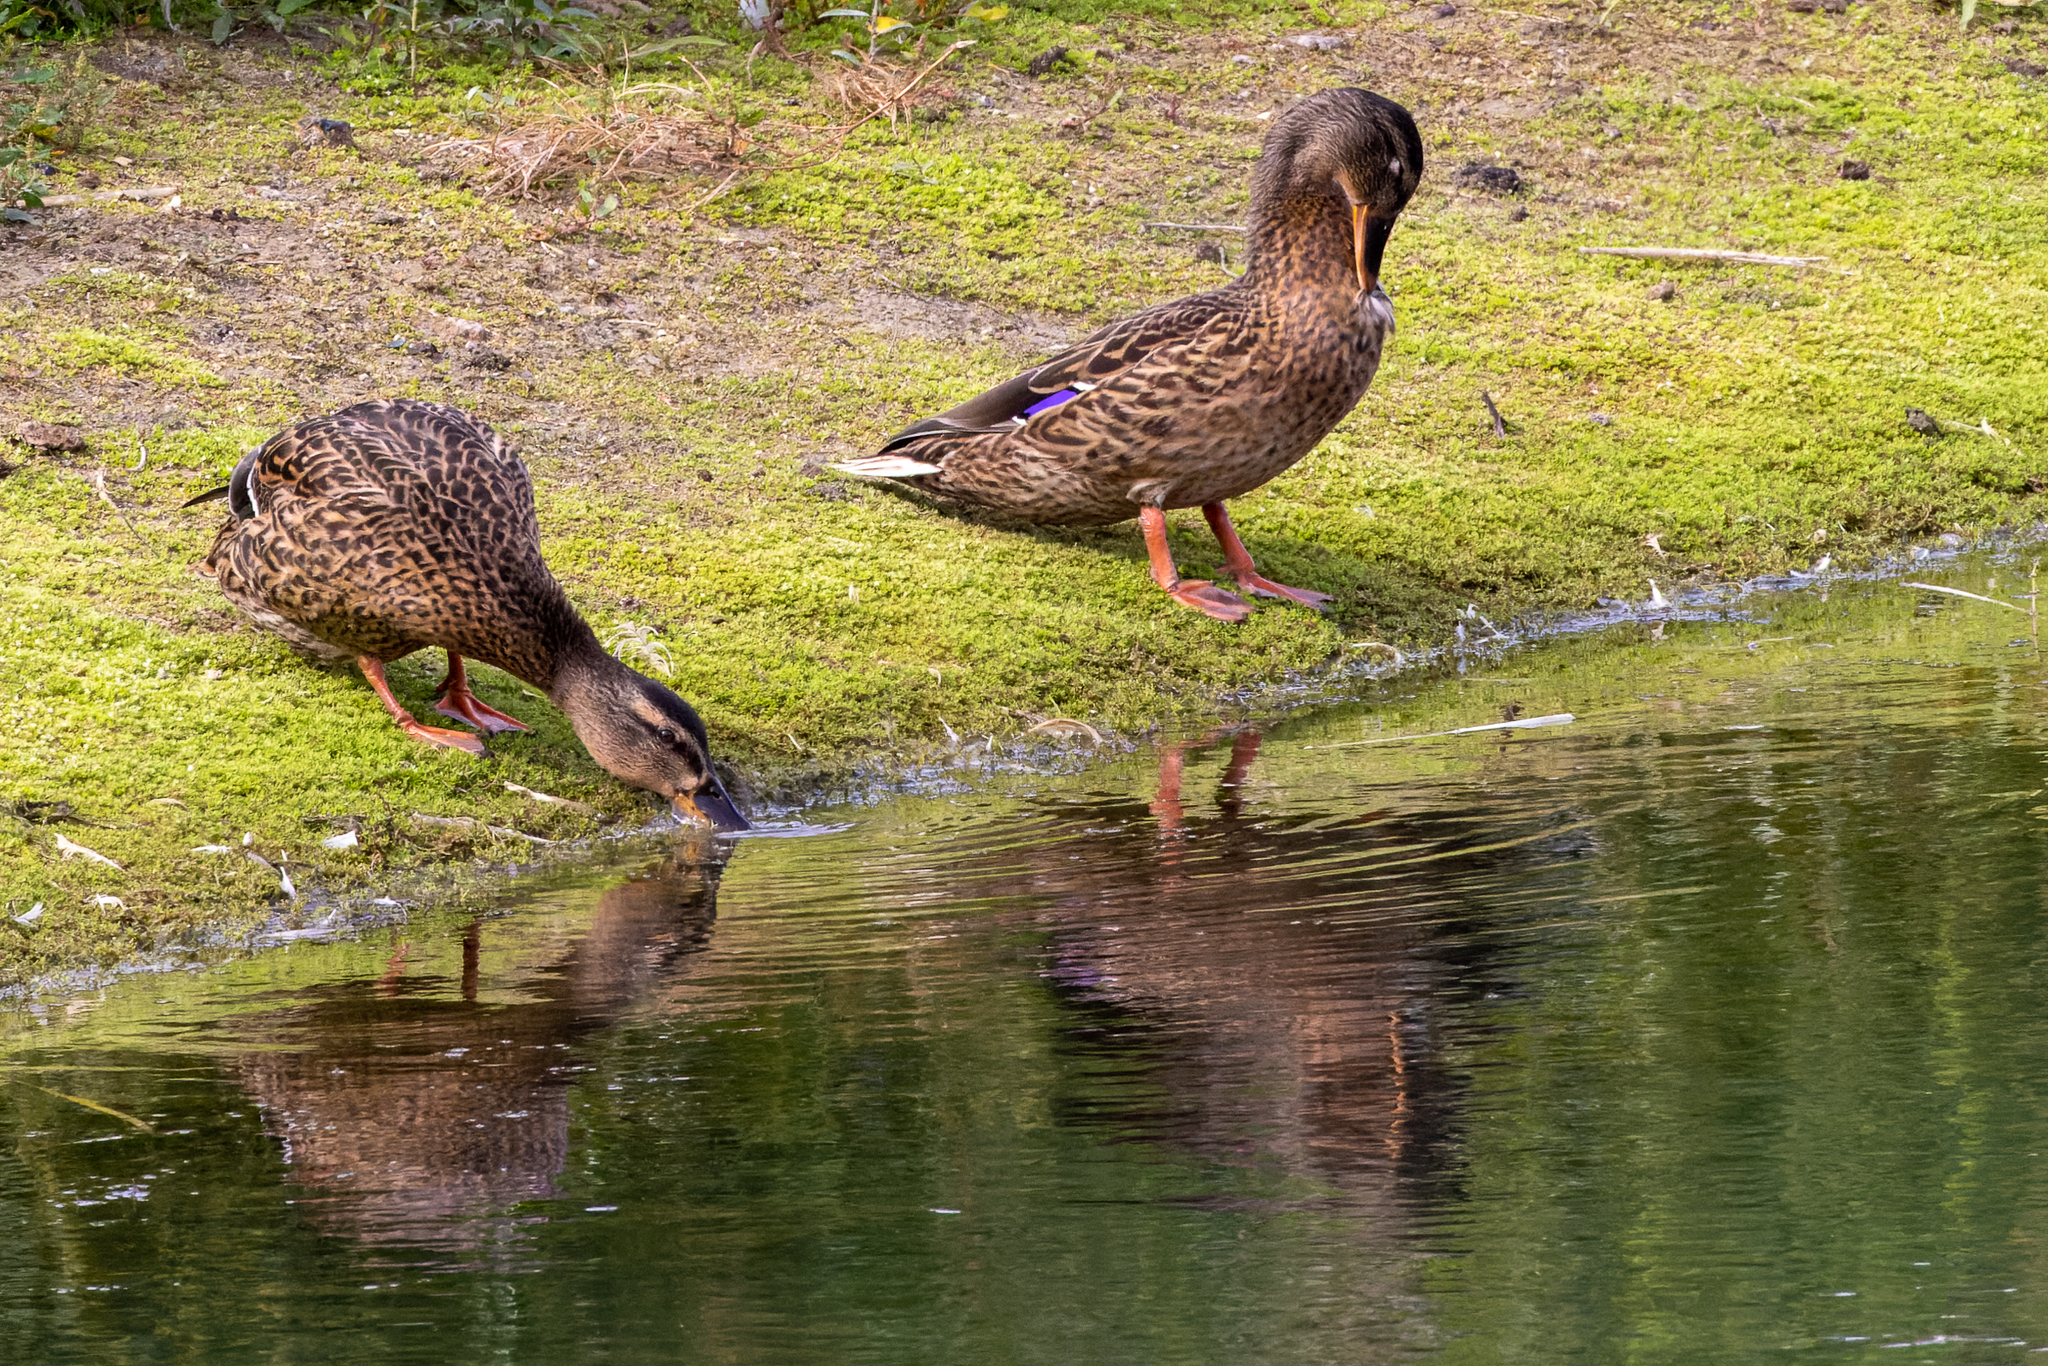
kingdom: Animalia
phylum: Chordata
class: Aves
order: Anseriformes
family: Anatidae
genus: Anas
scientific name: Anas platyrhynchos
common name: Mallard
